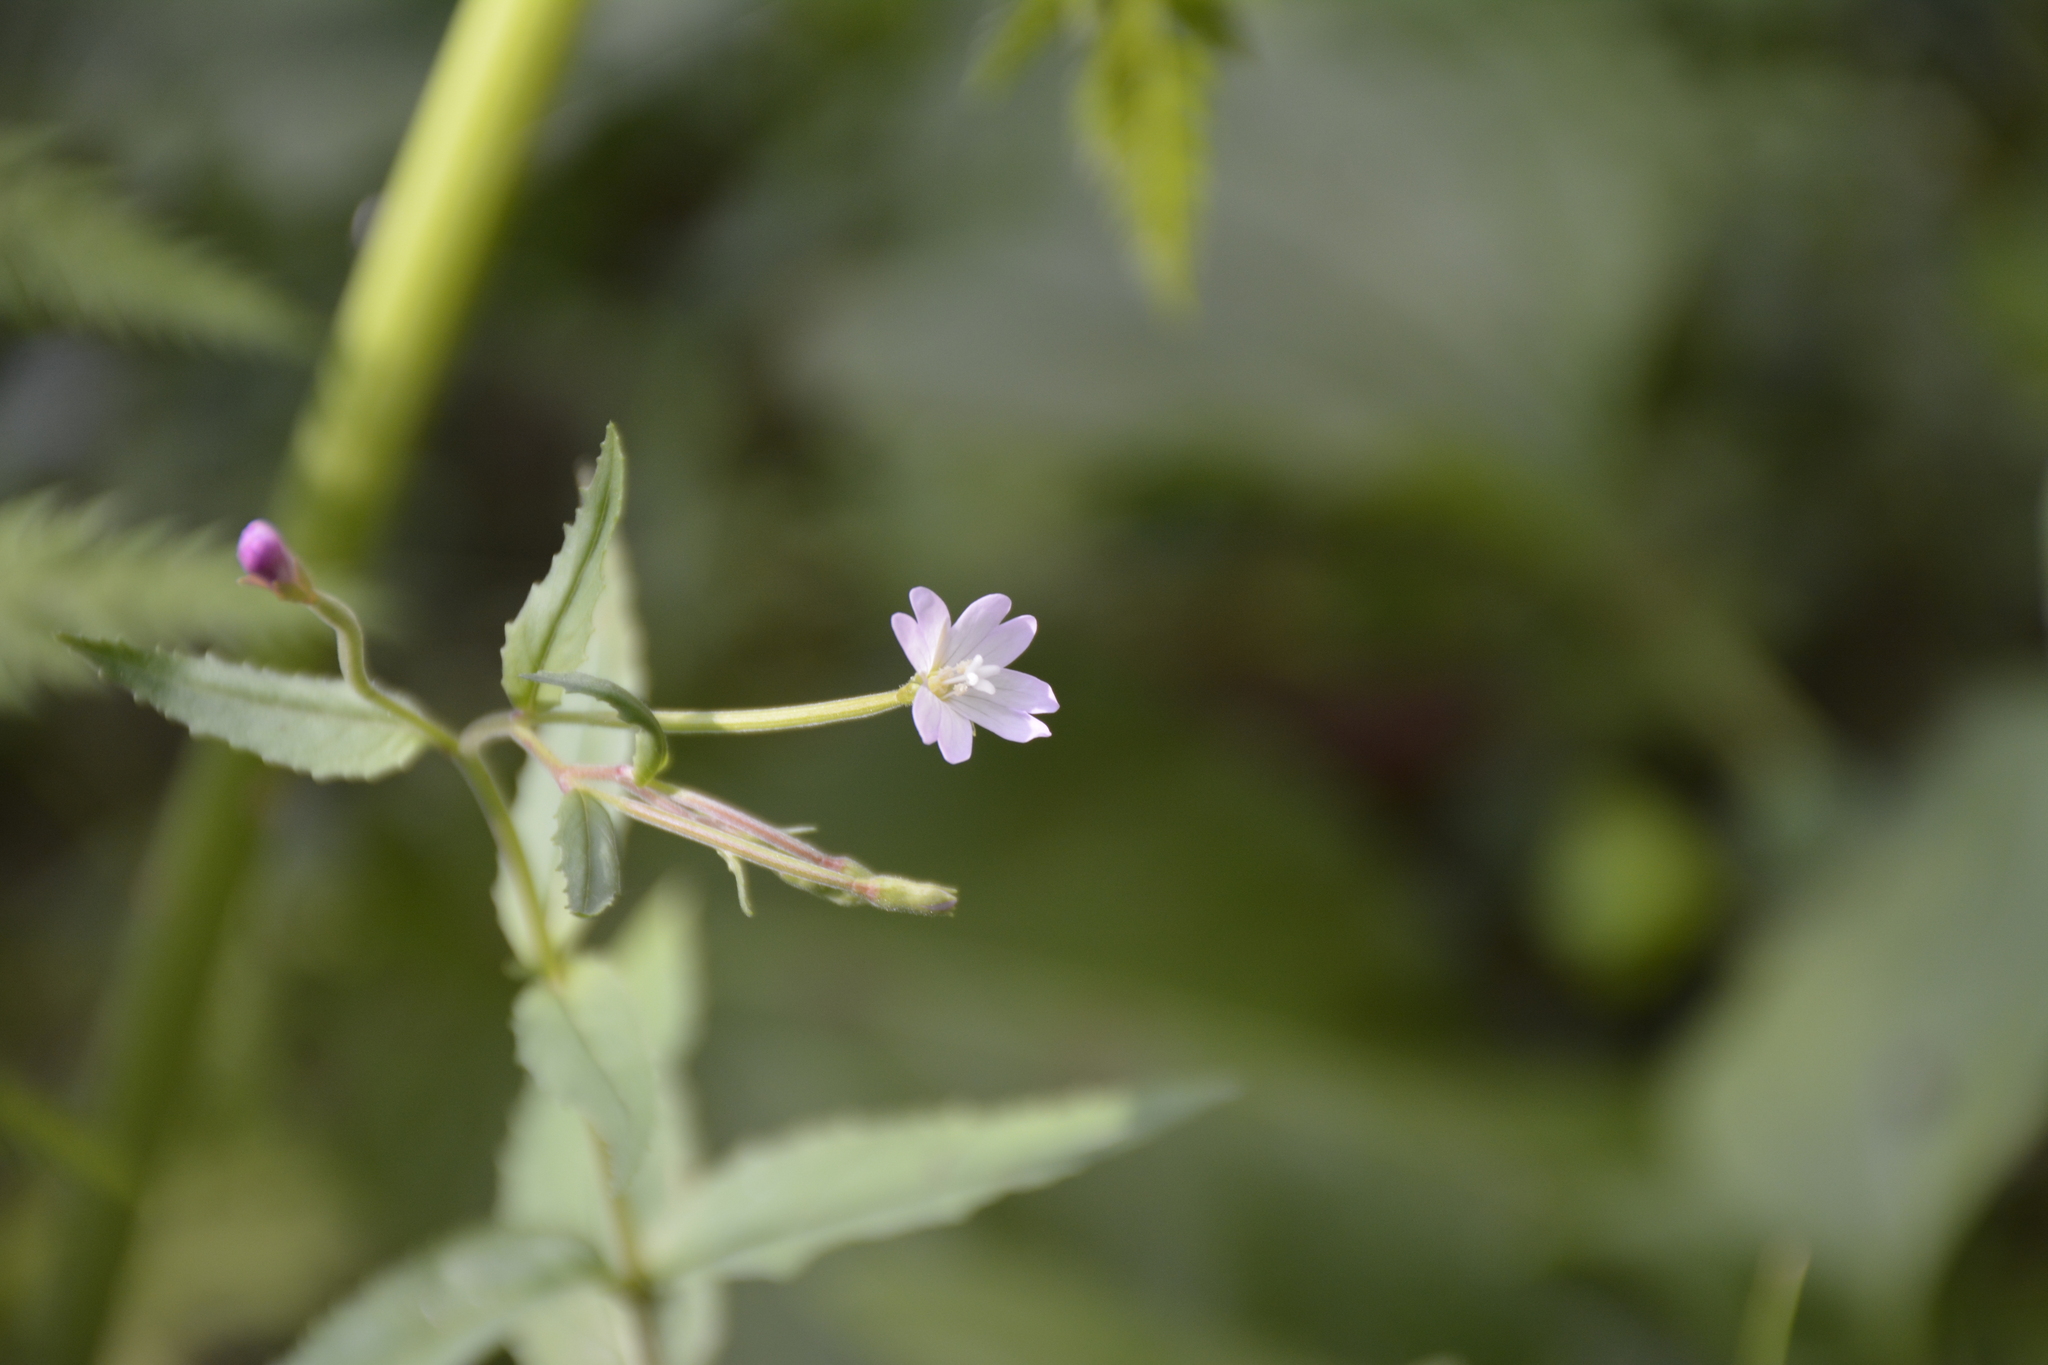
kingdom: Plantae
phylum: Tracheophyta
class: Magnoliopsida
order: Myrtales
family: Onagraceae
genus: Epilobium
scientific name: Epilobium montanum
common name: Broad-leaved willowherb
